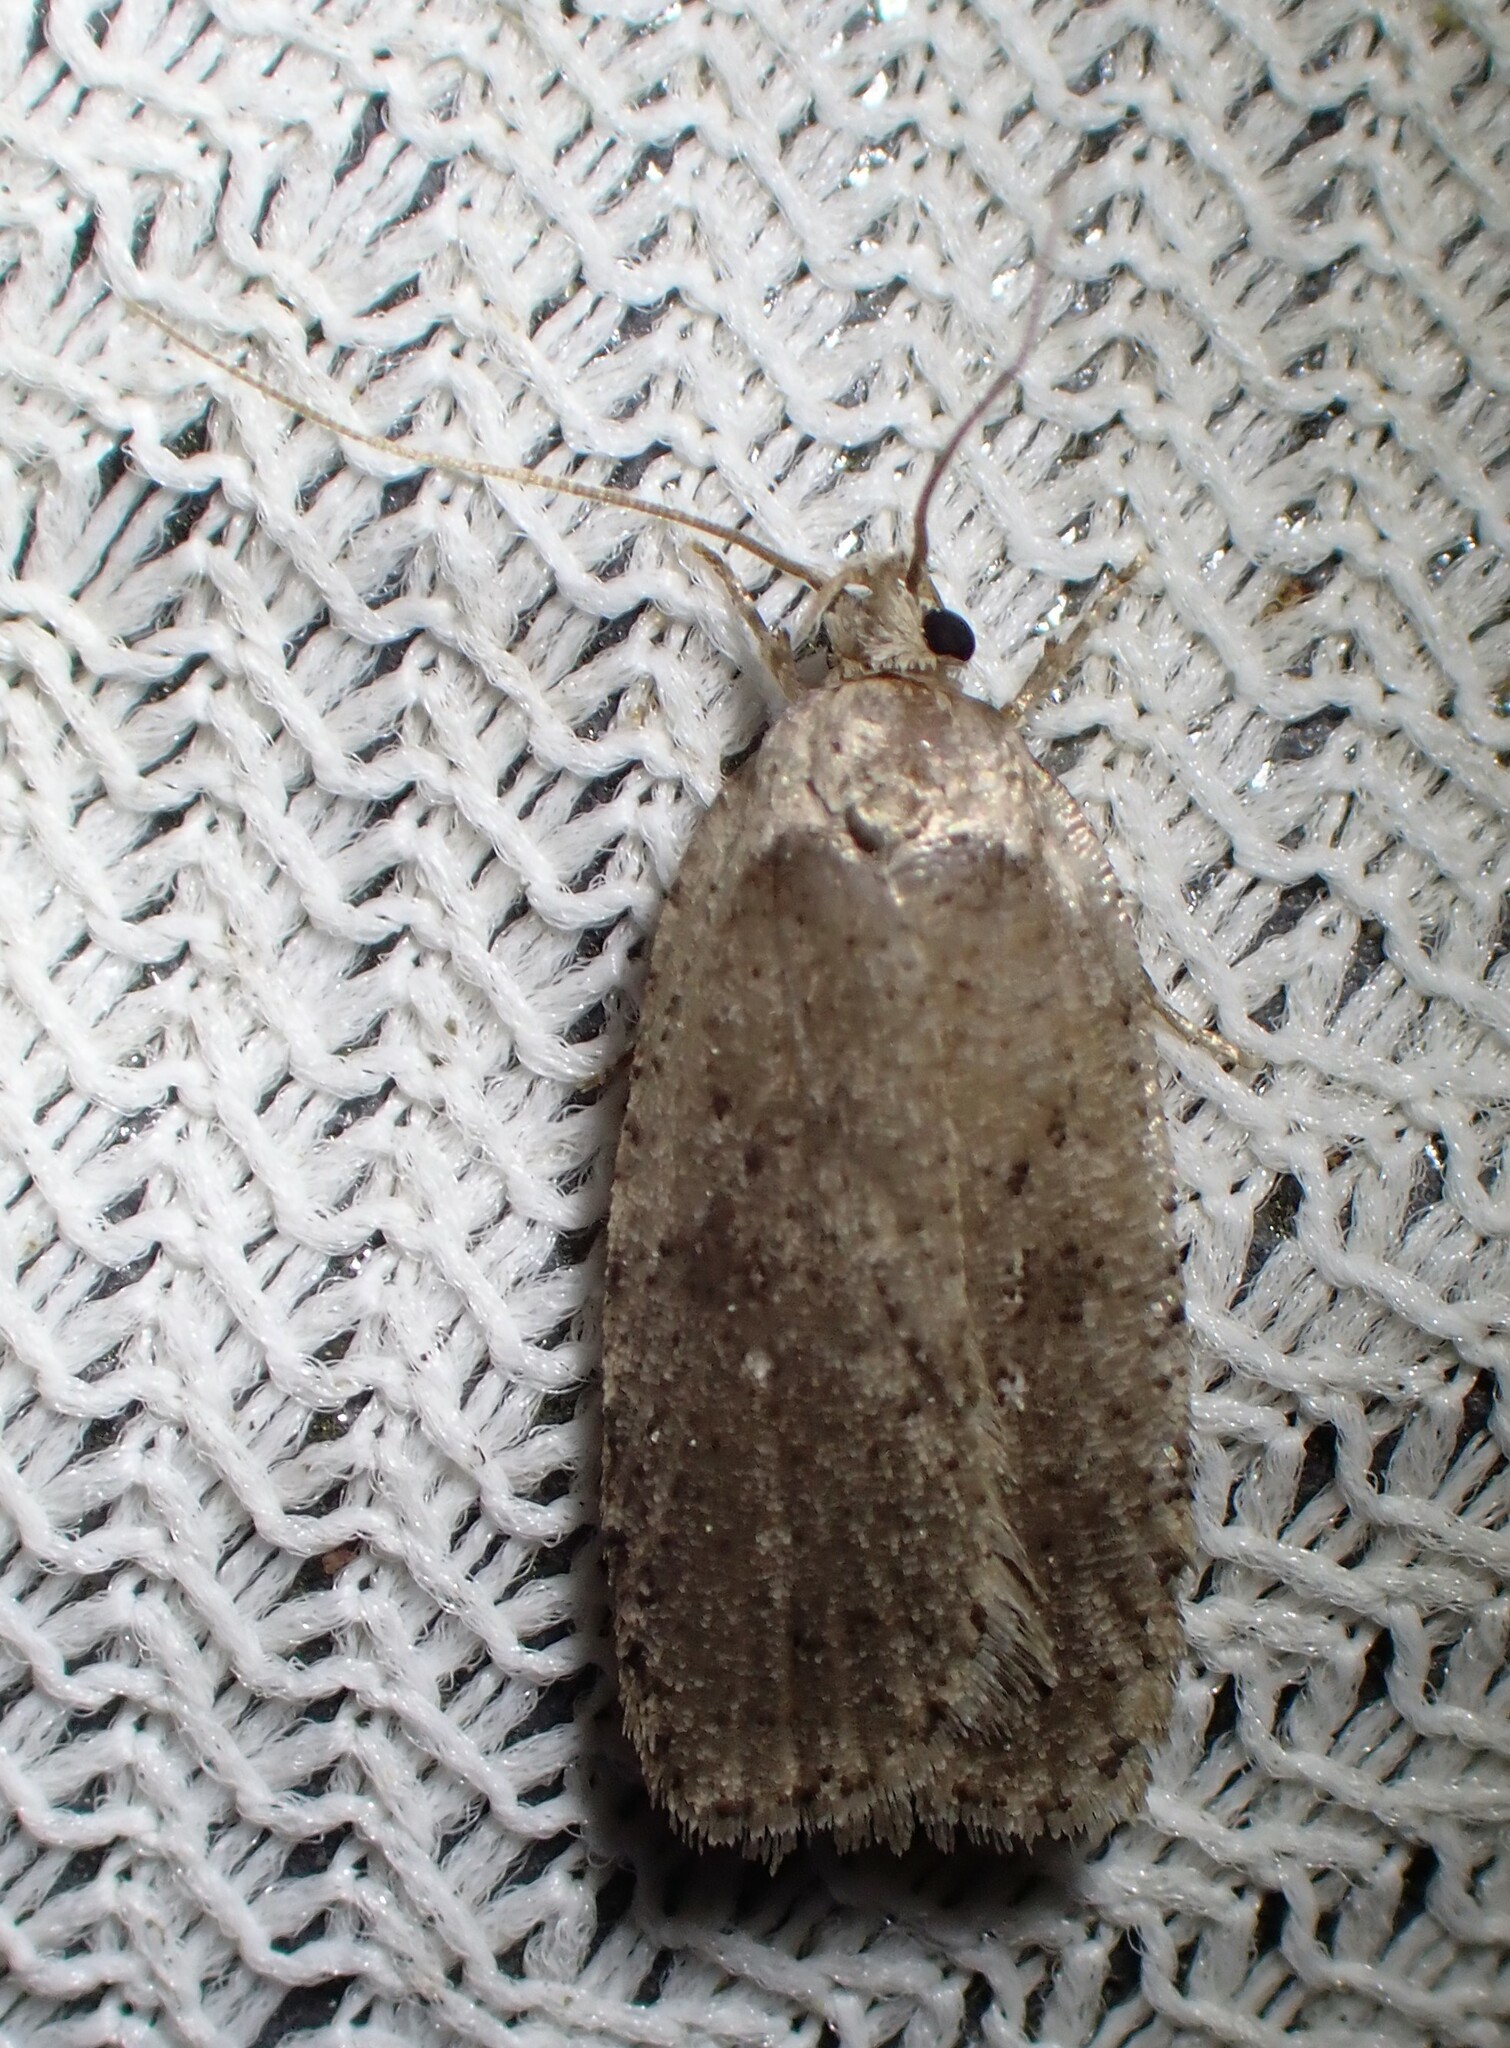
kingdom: Animalia
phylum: Arthropoda
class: Insecta
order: Lepidoptera
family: Depressariidae
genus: Agonopterix
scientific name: Agonopterix argillacea
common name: Clay-colored agonopterix moth
